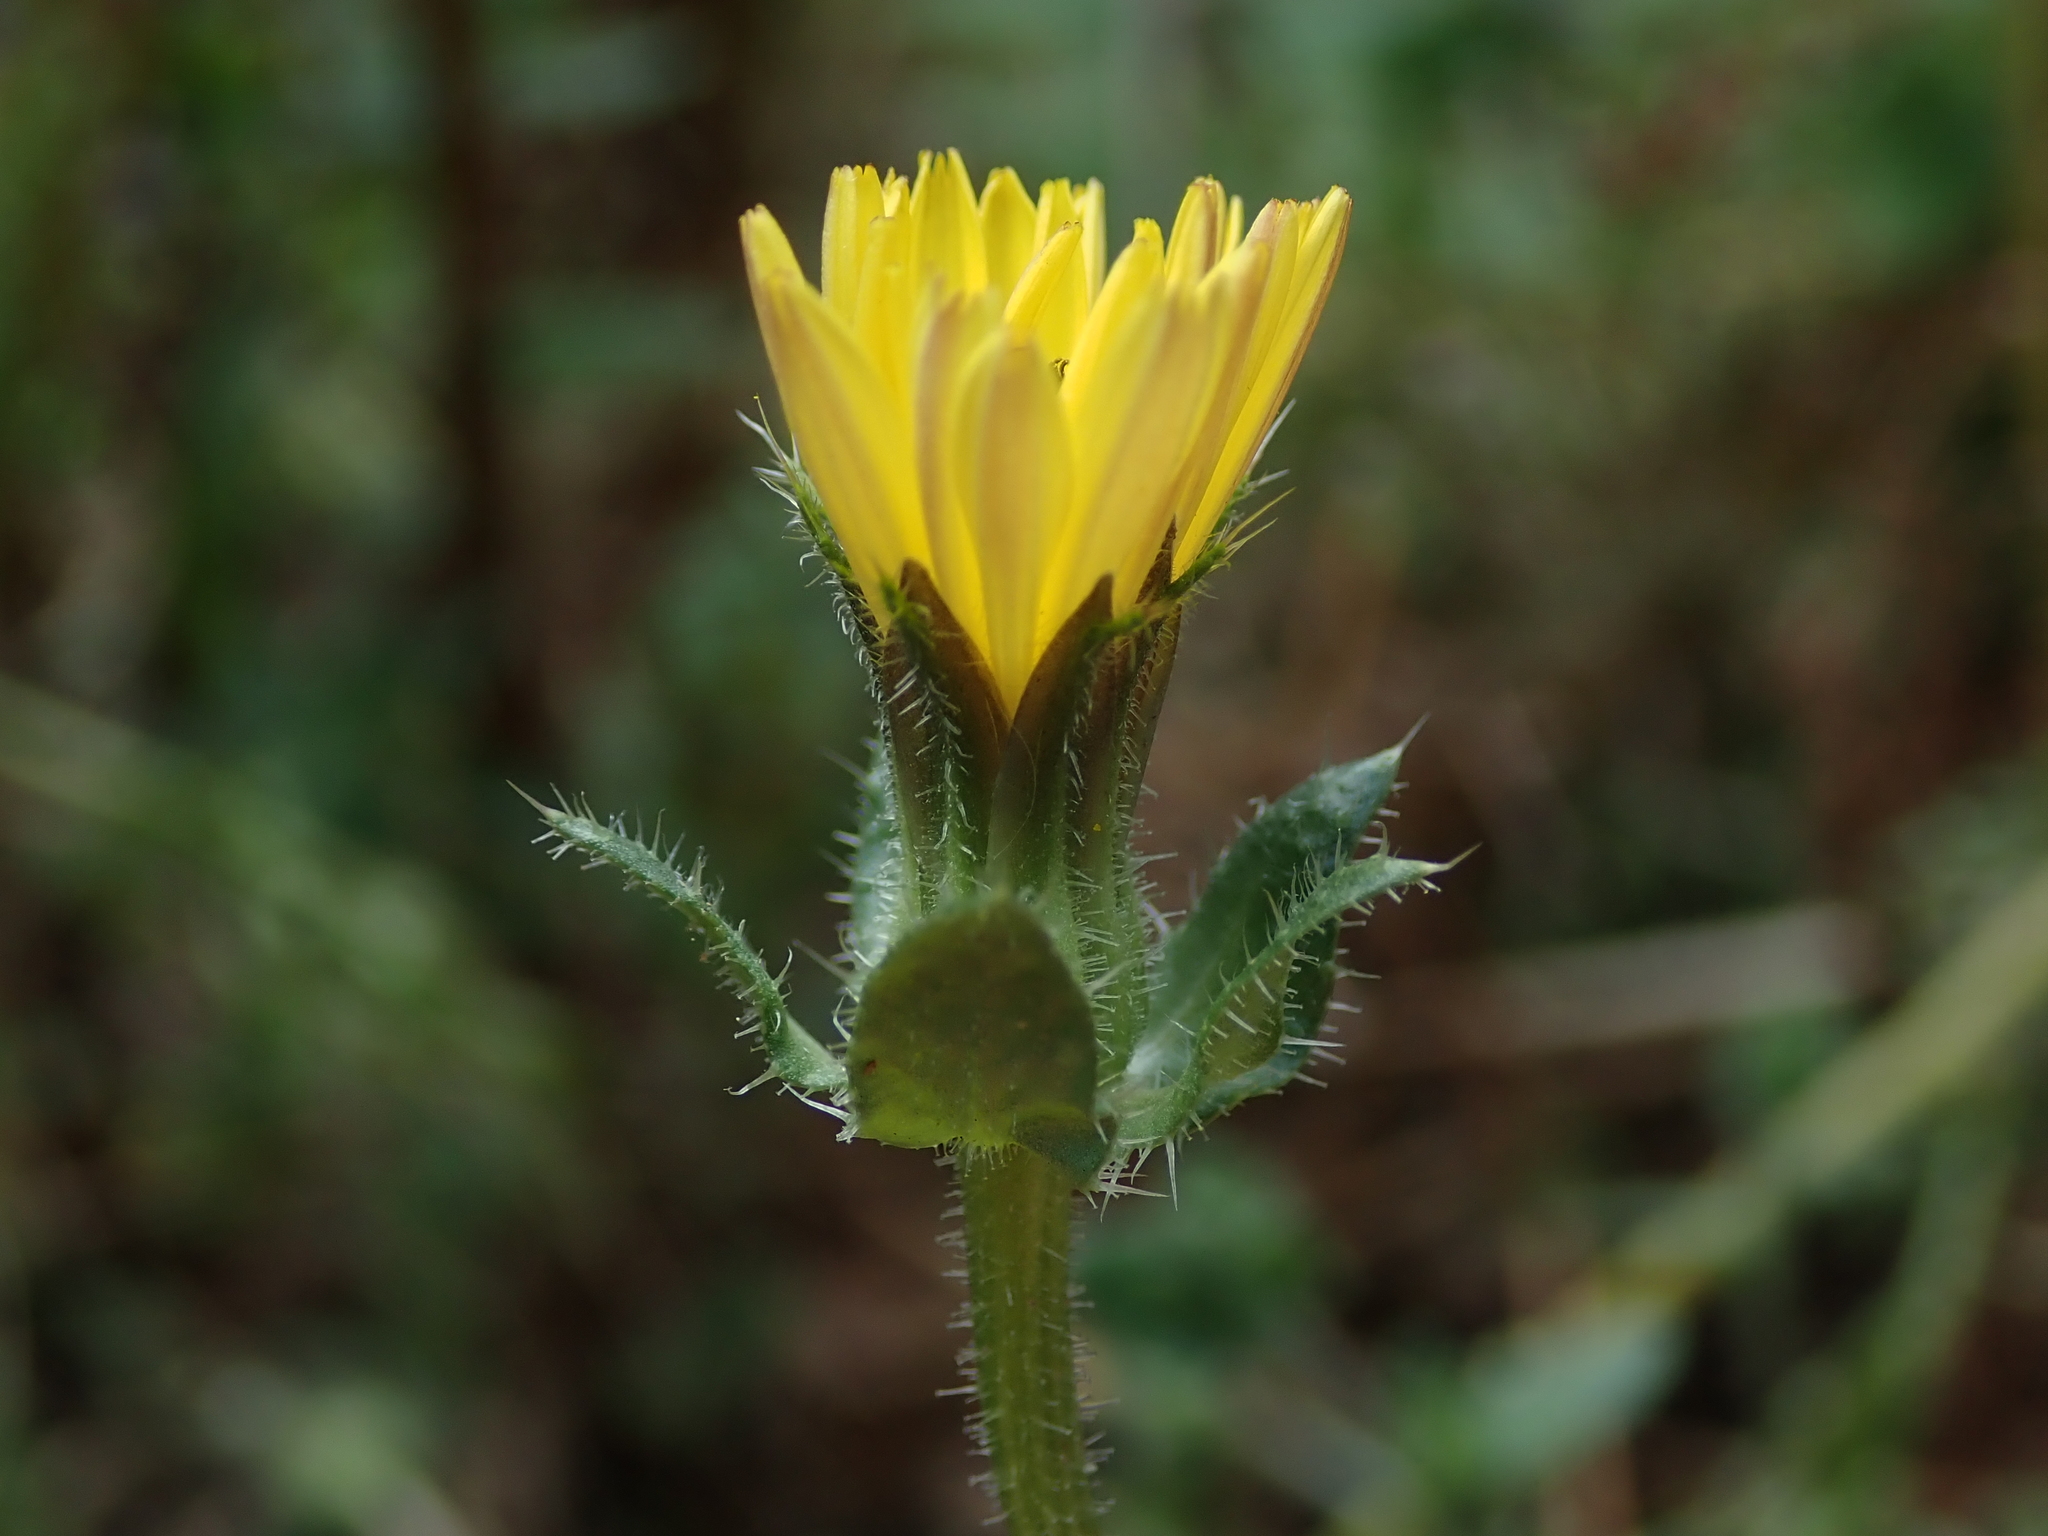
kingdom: Plantae
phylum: Tracheophyta
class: Magnoliopsida
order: Asterales
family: Asteraceae
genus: Helminthotheca
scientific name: Helminthotheca echioides
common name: Ox-tongue
